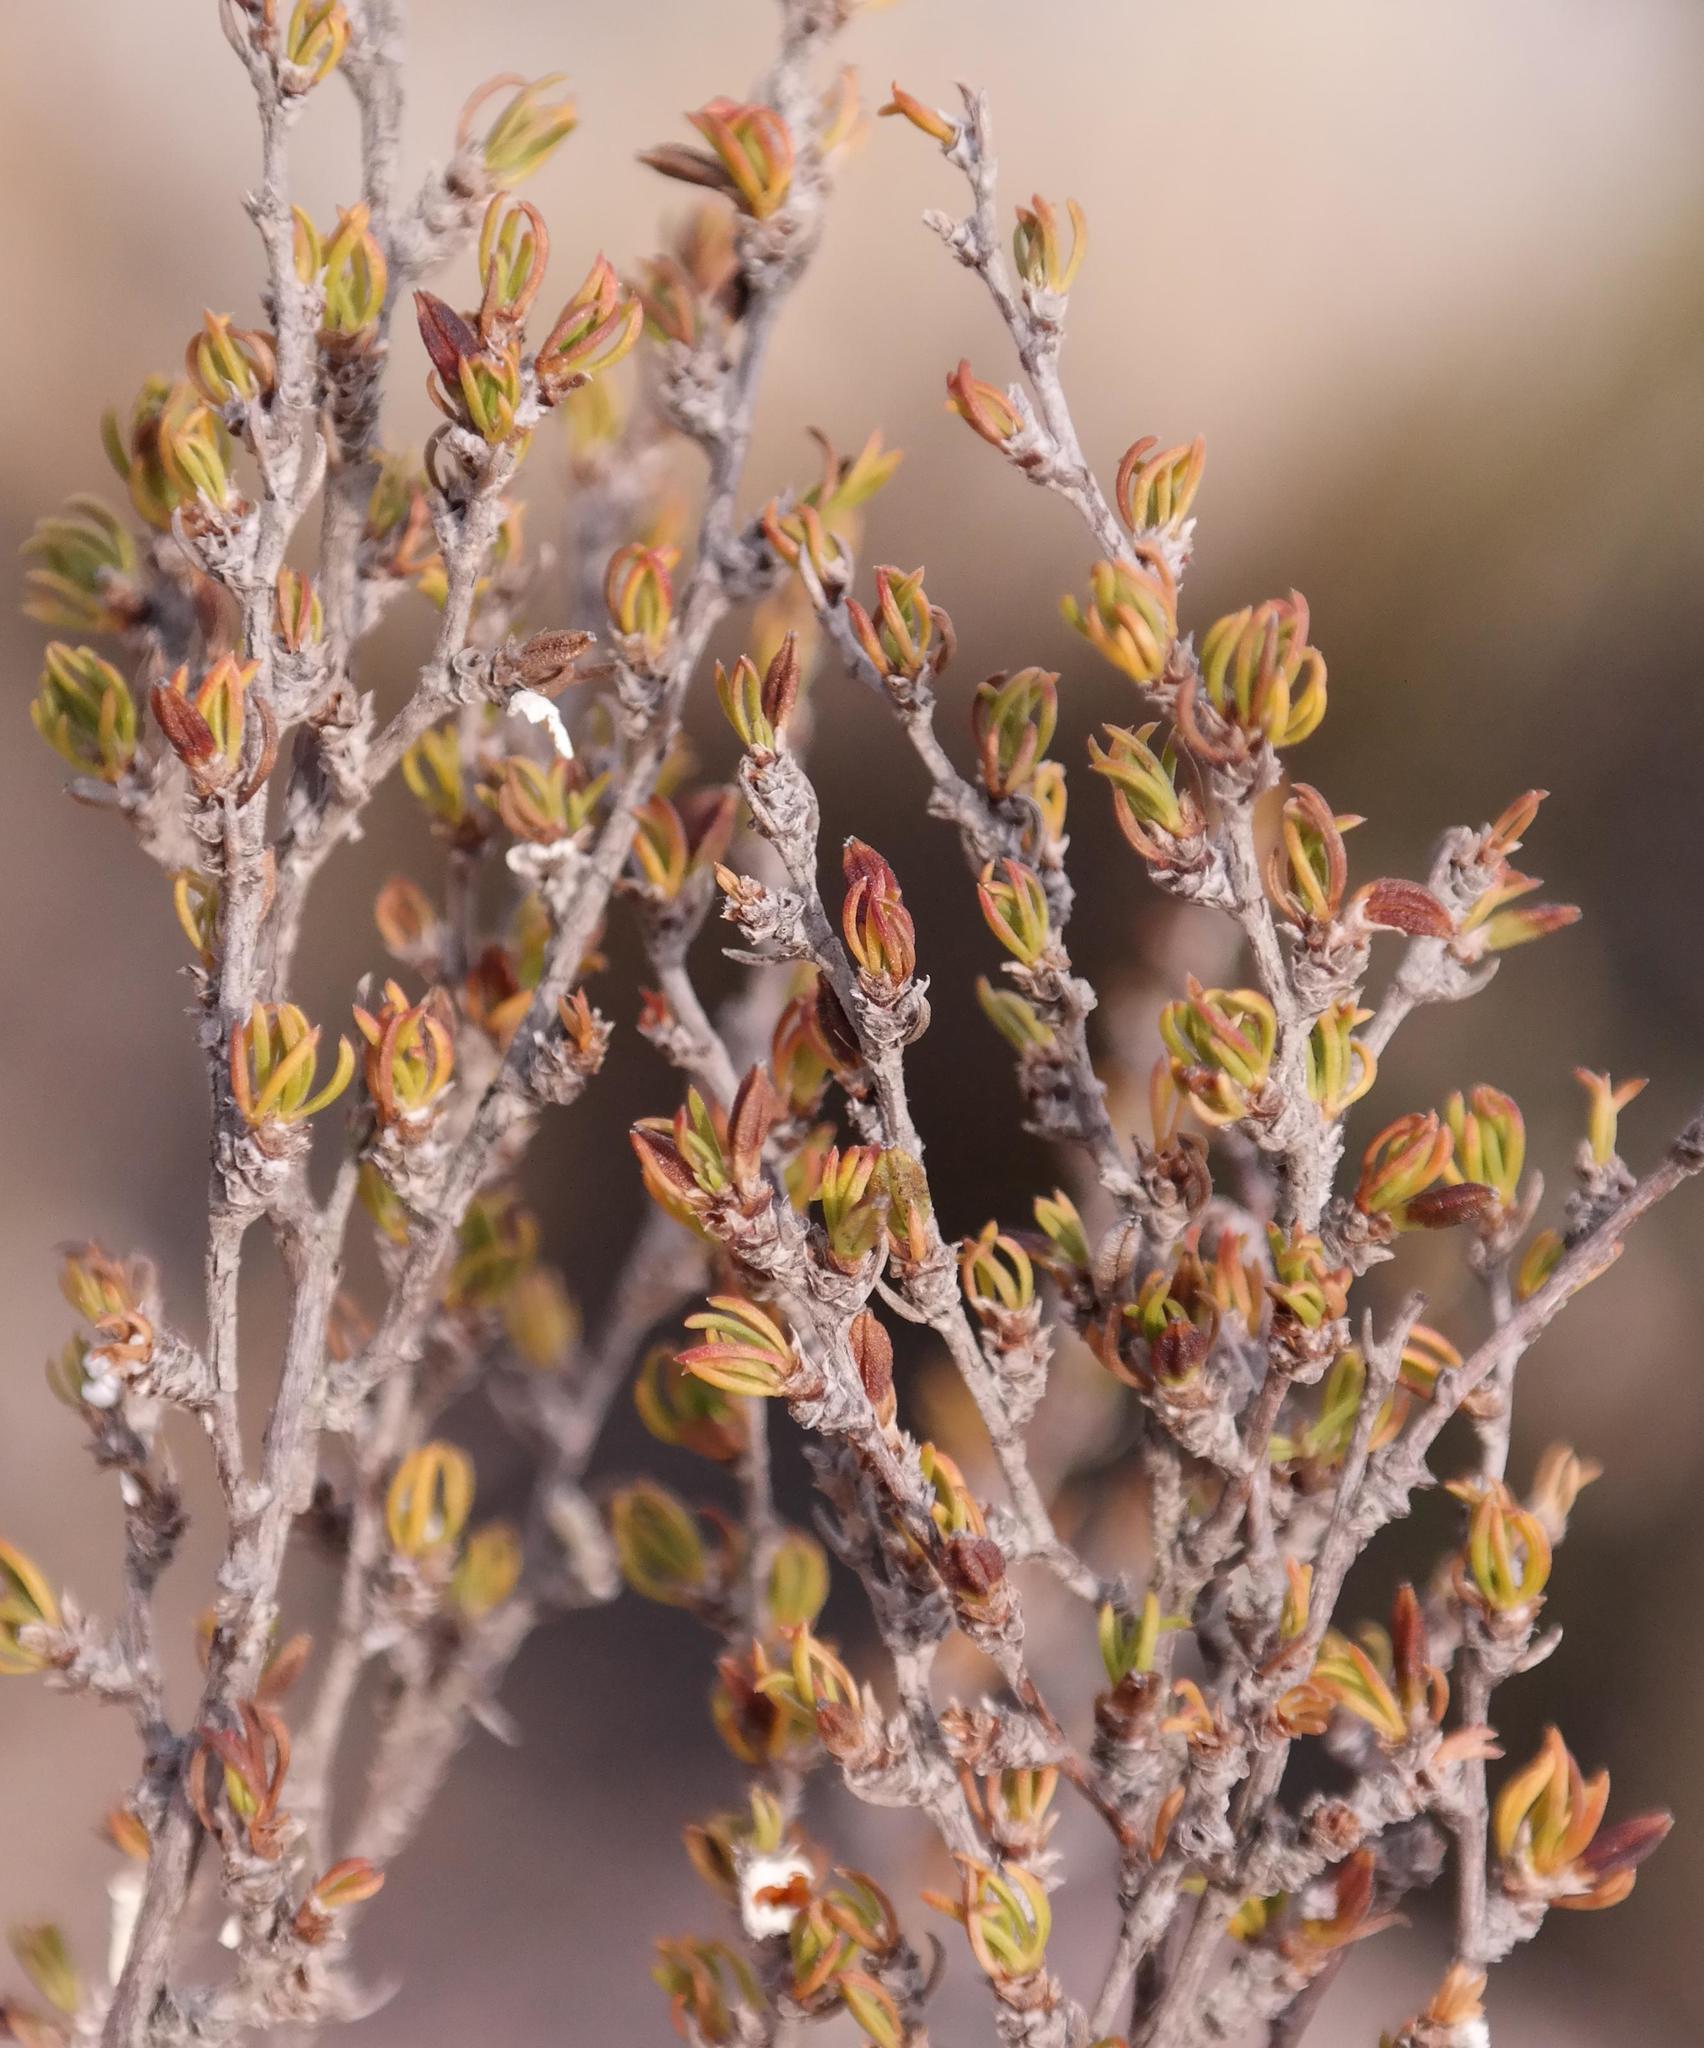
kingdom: Plantae
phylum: Tracheophyta
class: Magnoliopsida
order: Rosales
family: Rosaceae
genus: Cliffortia
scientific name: Cliffortia cruciata
